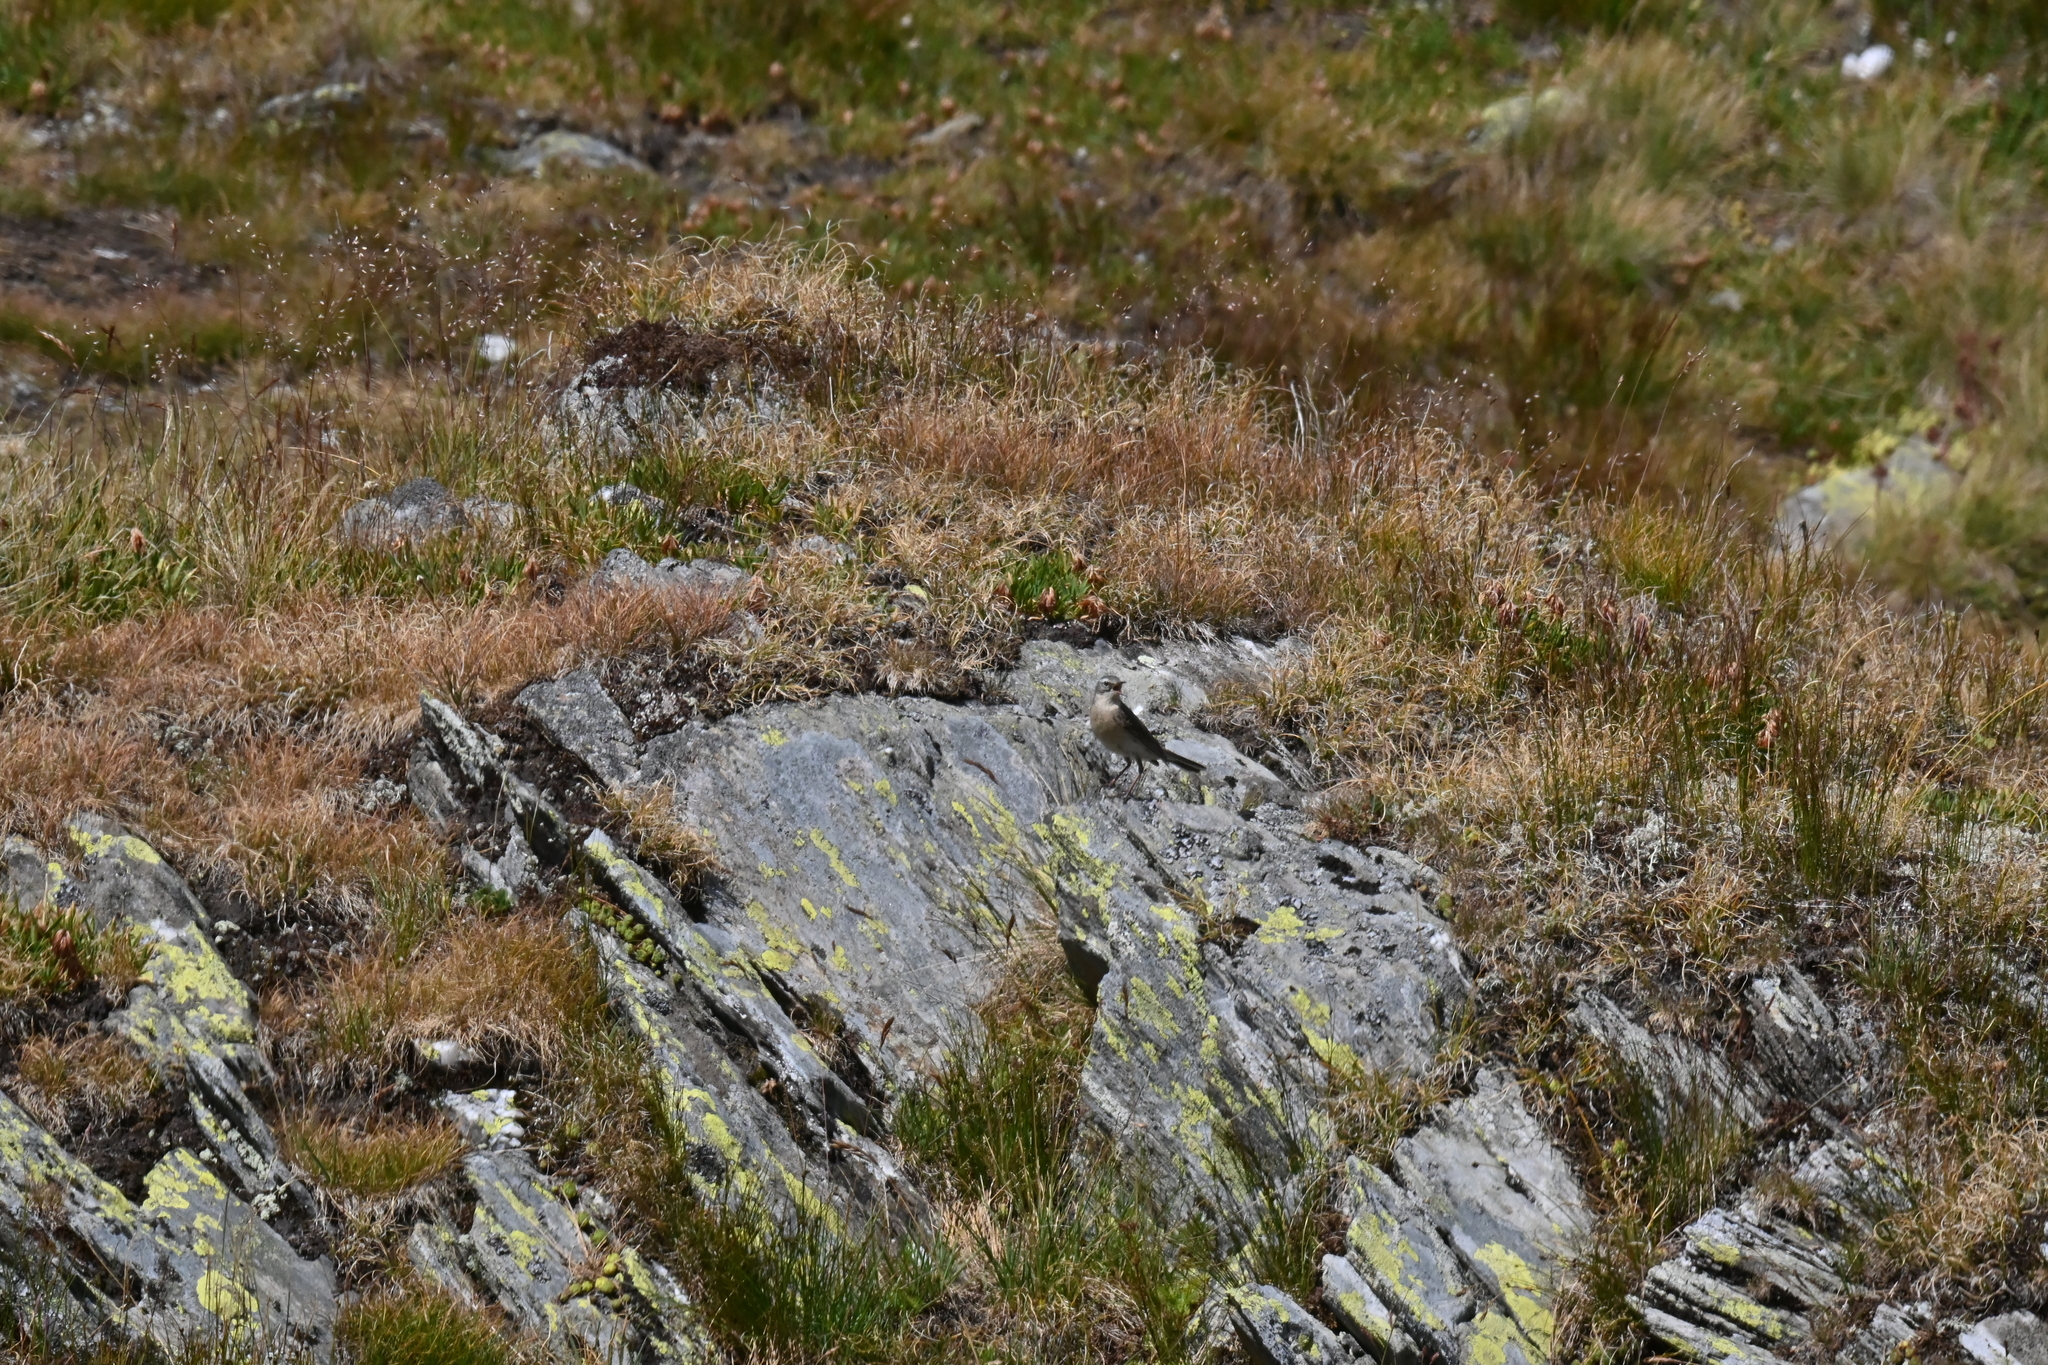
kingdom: Animalia
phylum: Chordata
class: Aves
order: Passeriformes
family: Motacillidae
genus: Anthus
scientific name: Anthus spinoletta
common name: Water pipit
